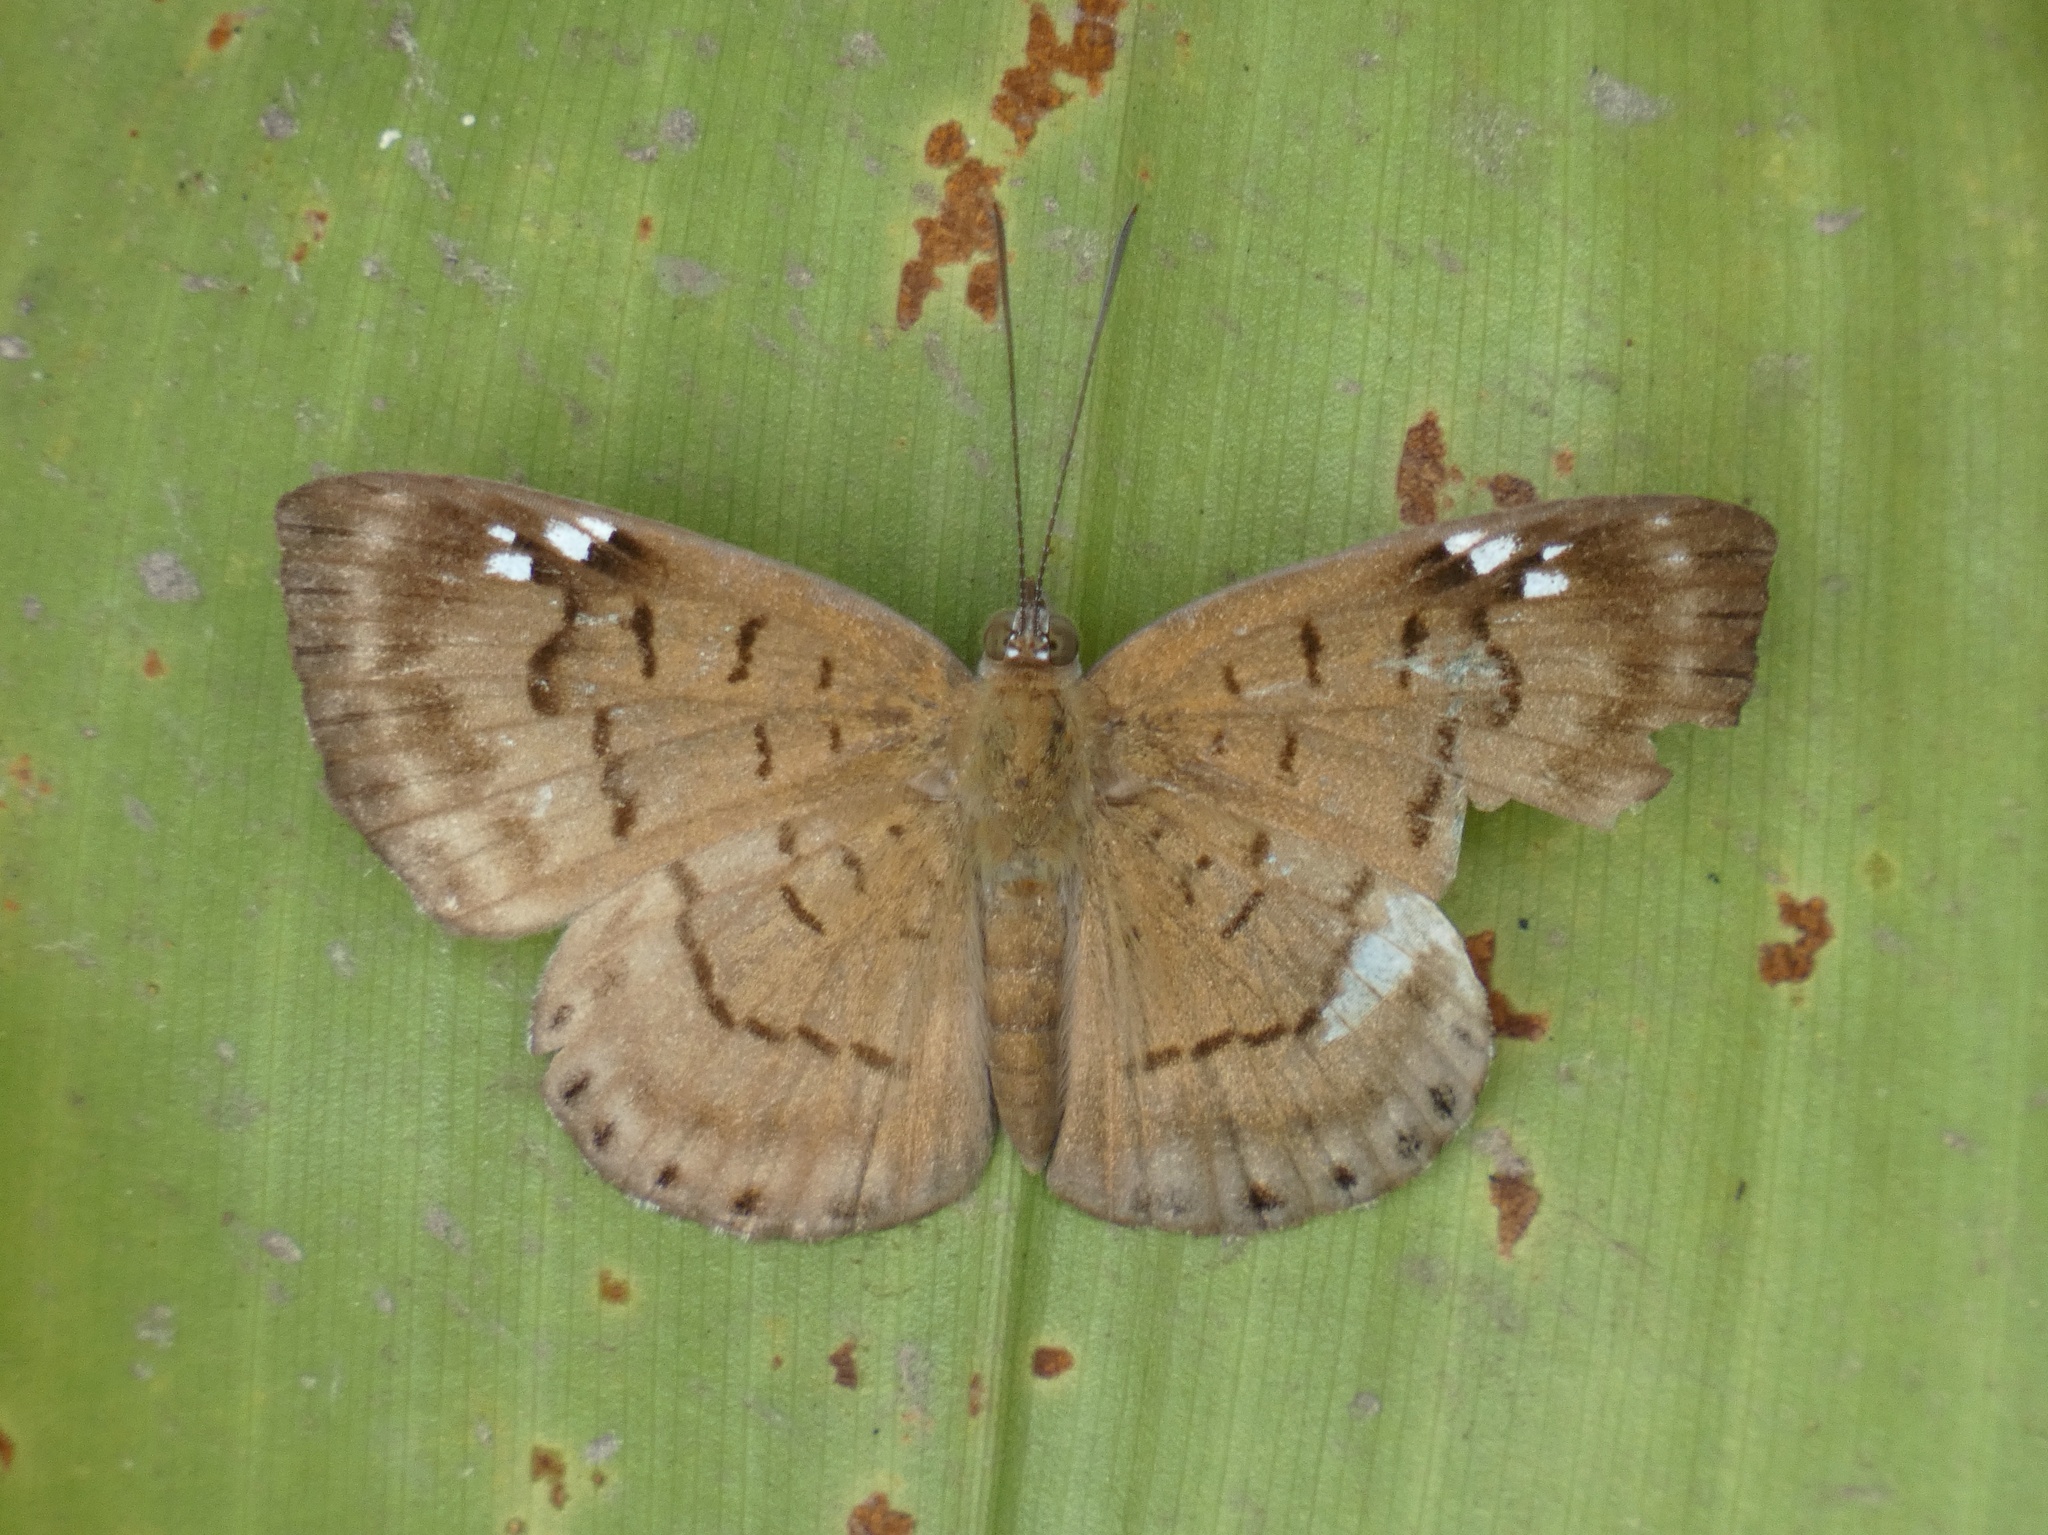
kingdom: Animalia
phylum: Arthropoda
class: Insecta
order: Lepidoptera
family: Riodinidae
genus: Periplacis
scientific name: Periplacis
